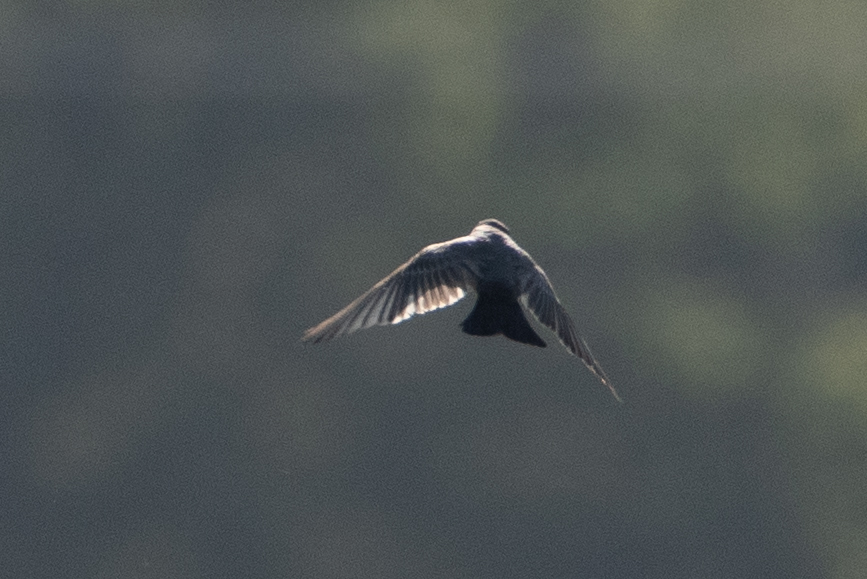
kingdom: Animalia
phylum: Chordata
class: Aves
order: Passeriformes
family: Tyrannidae
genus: Sayornis
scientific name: Sayornis saya
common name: Say's phoebe
